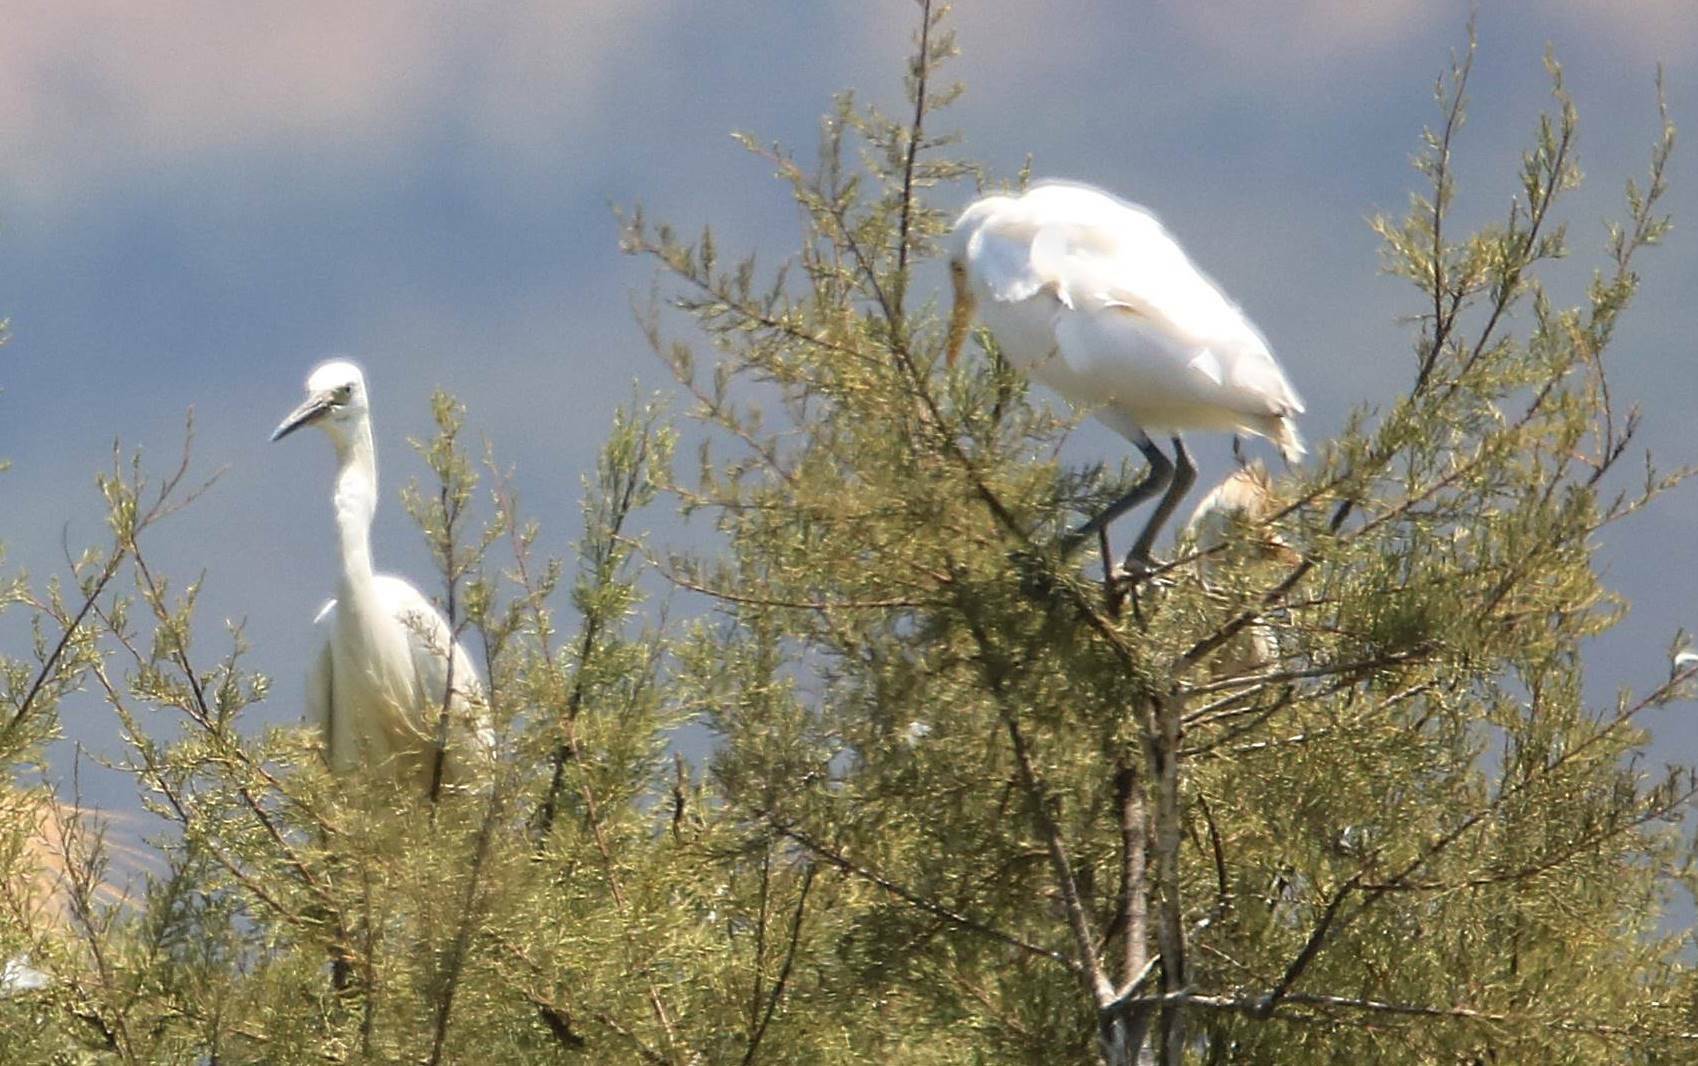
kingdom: Animalia
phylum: Chordata
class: Aves
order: Pelecaniformes
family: Ardeidae
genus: Egretta
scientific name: Egretta garzetta
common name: Little egret
